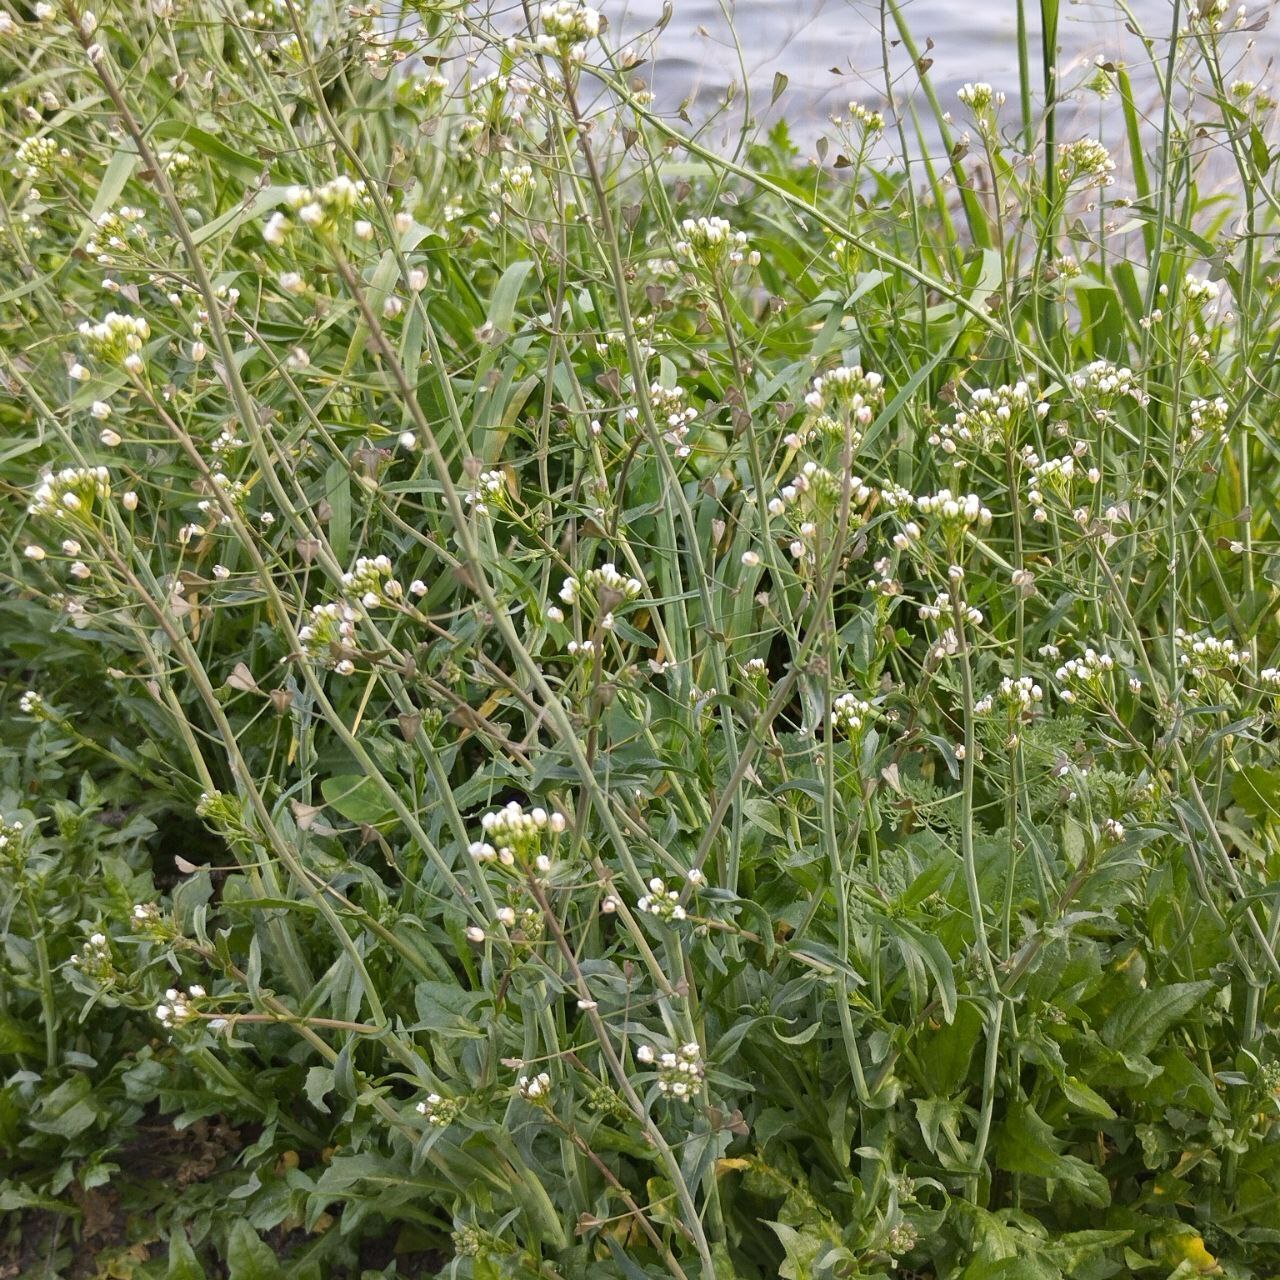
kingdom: Plantae
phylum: Tracheophyta
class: Magnoliopsida
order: Brassicales
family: Brassicaceae
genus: Capsella
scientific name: Capsella bursa-pastoris
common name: Shepherd's purse
